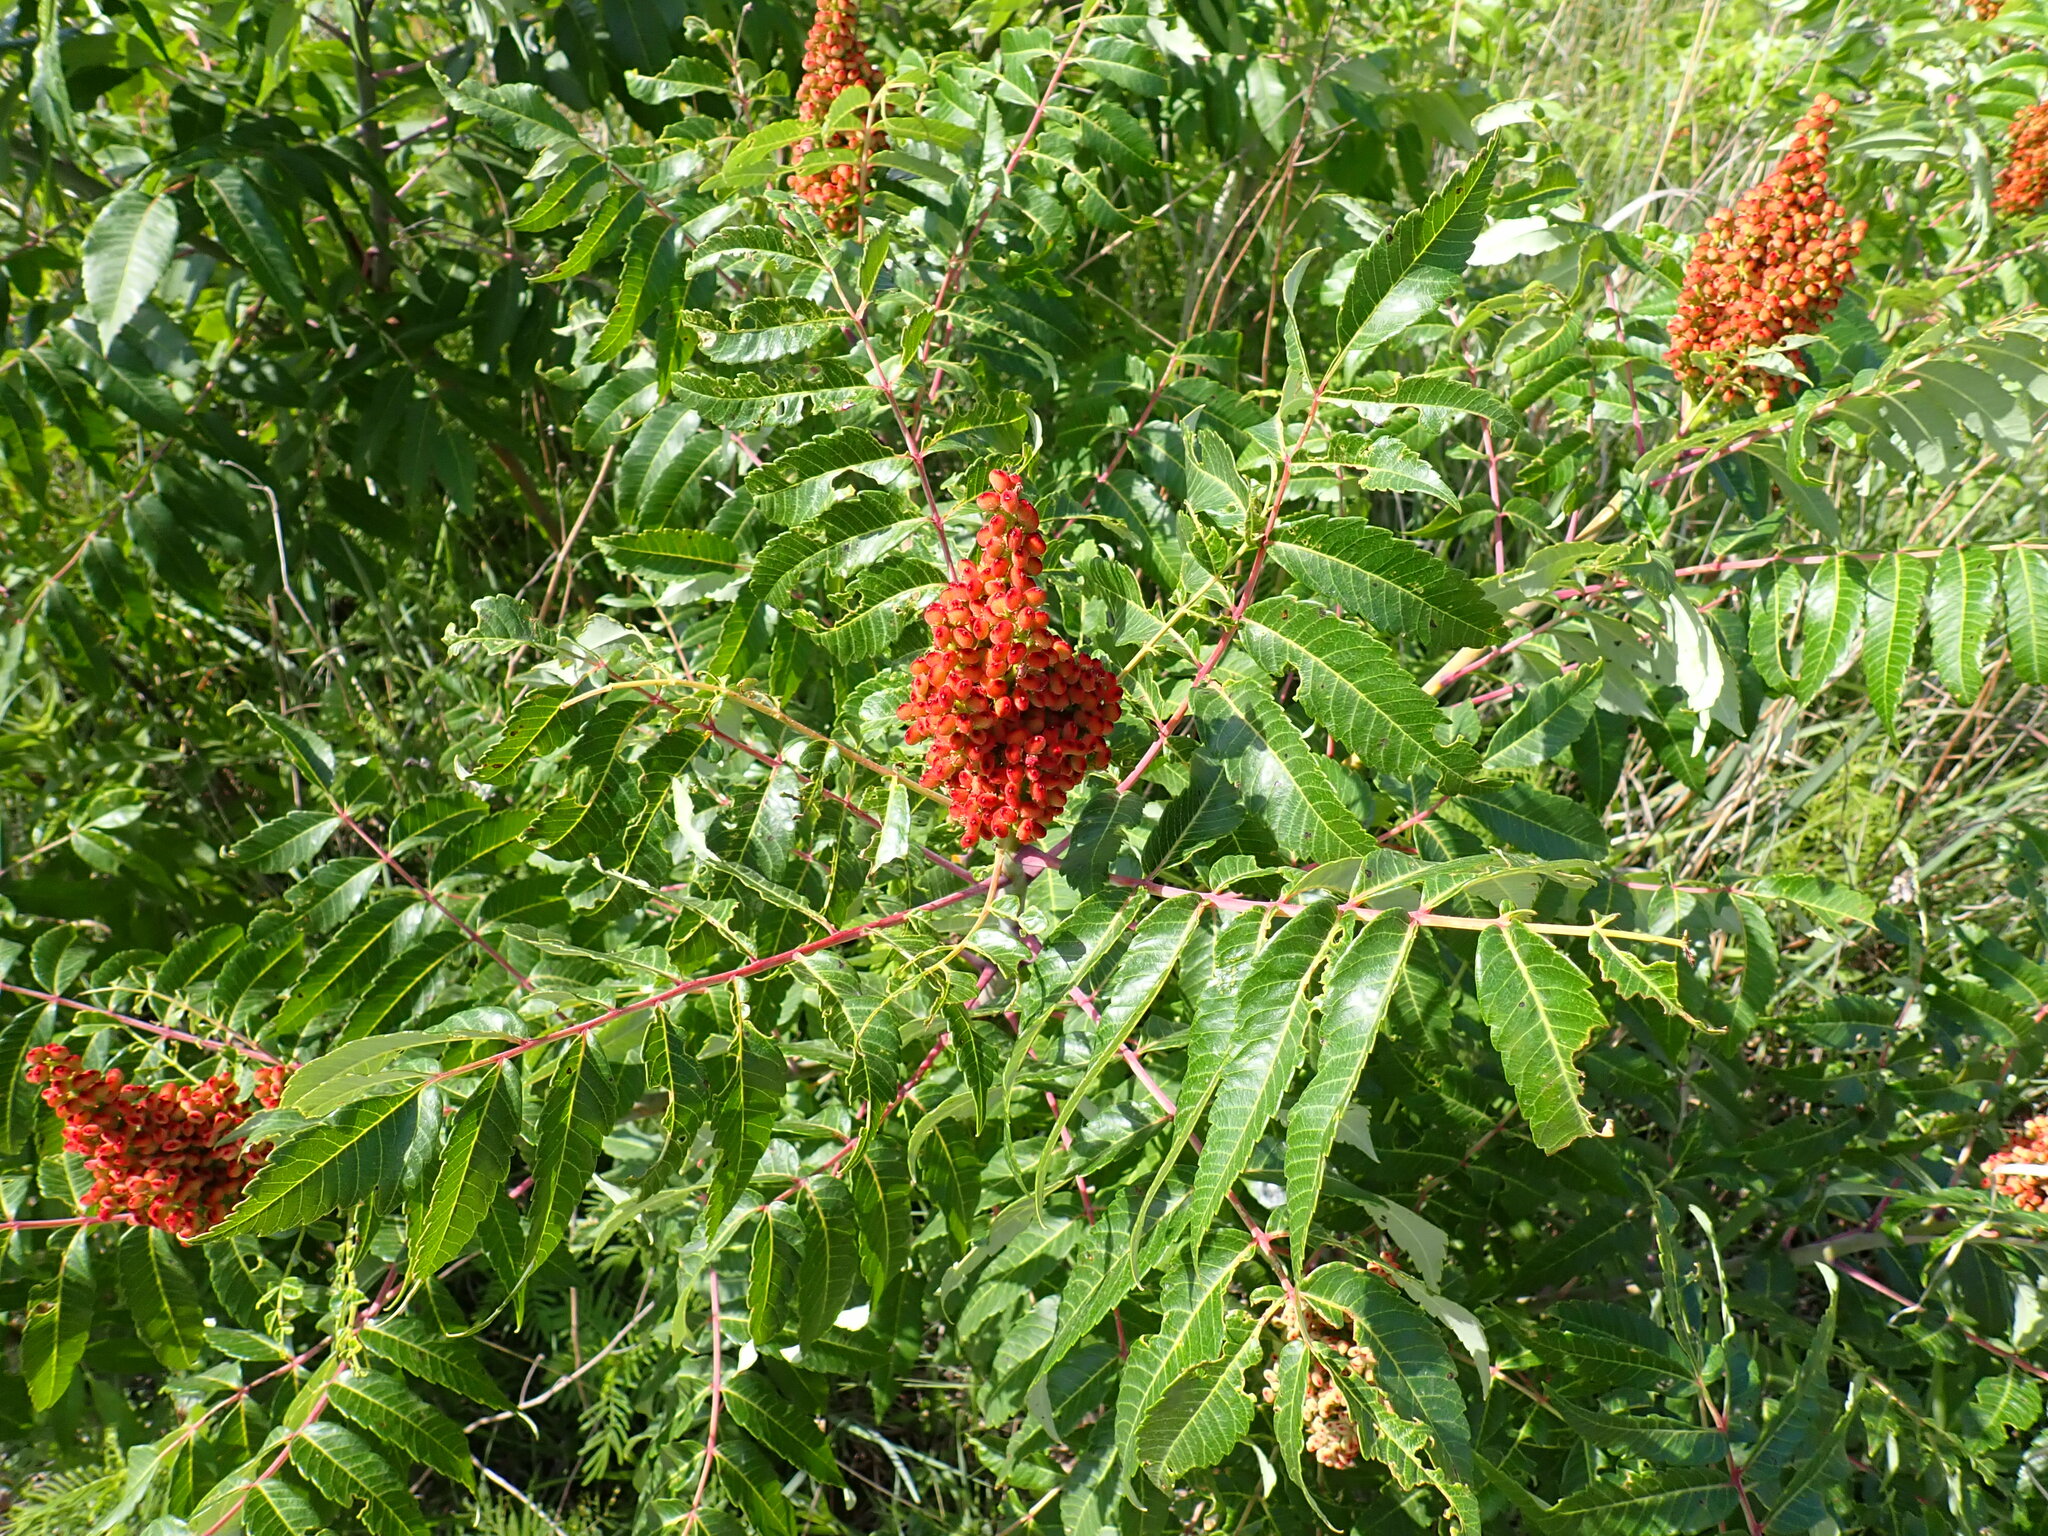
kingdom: Plantae
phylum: Tracheophyta
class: Magnoliopsida
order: Sapindales
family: Anacardiaceae
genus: Rhus
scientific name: Rhus glabra
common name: Scarlet sumac
